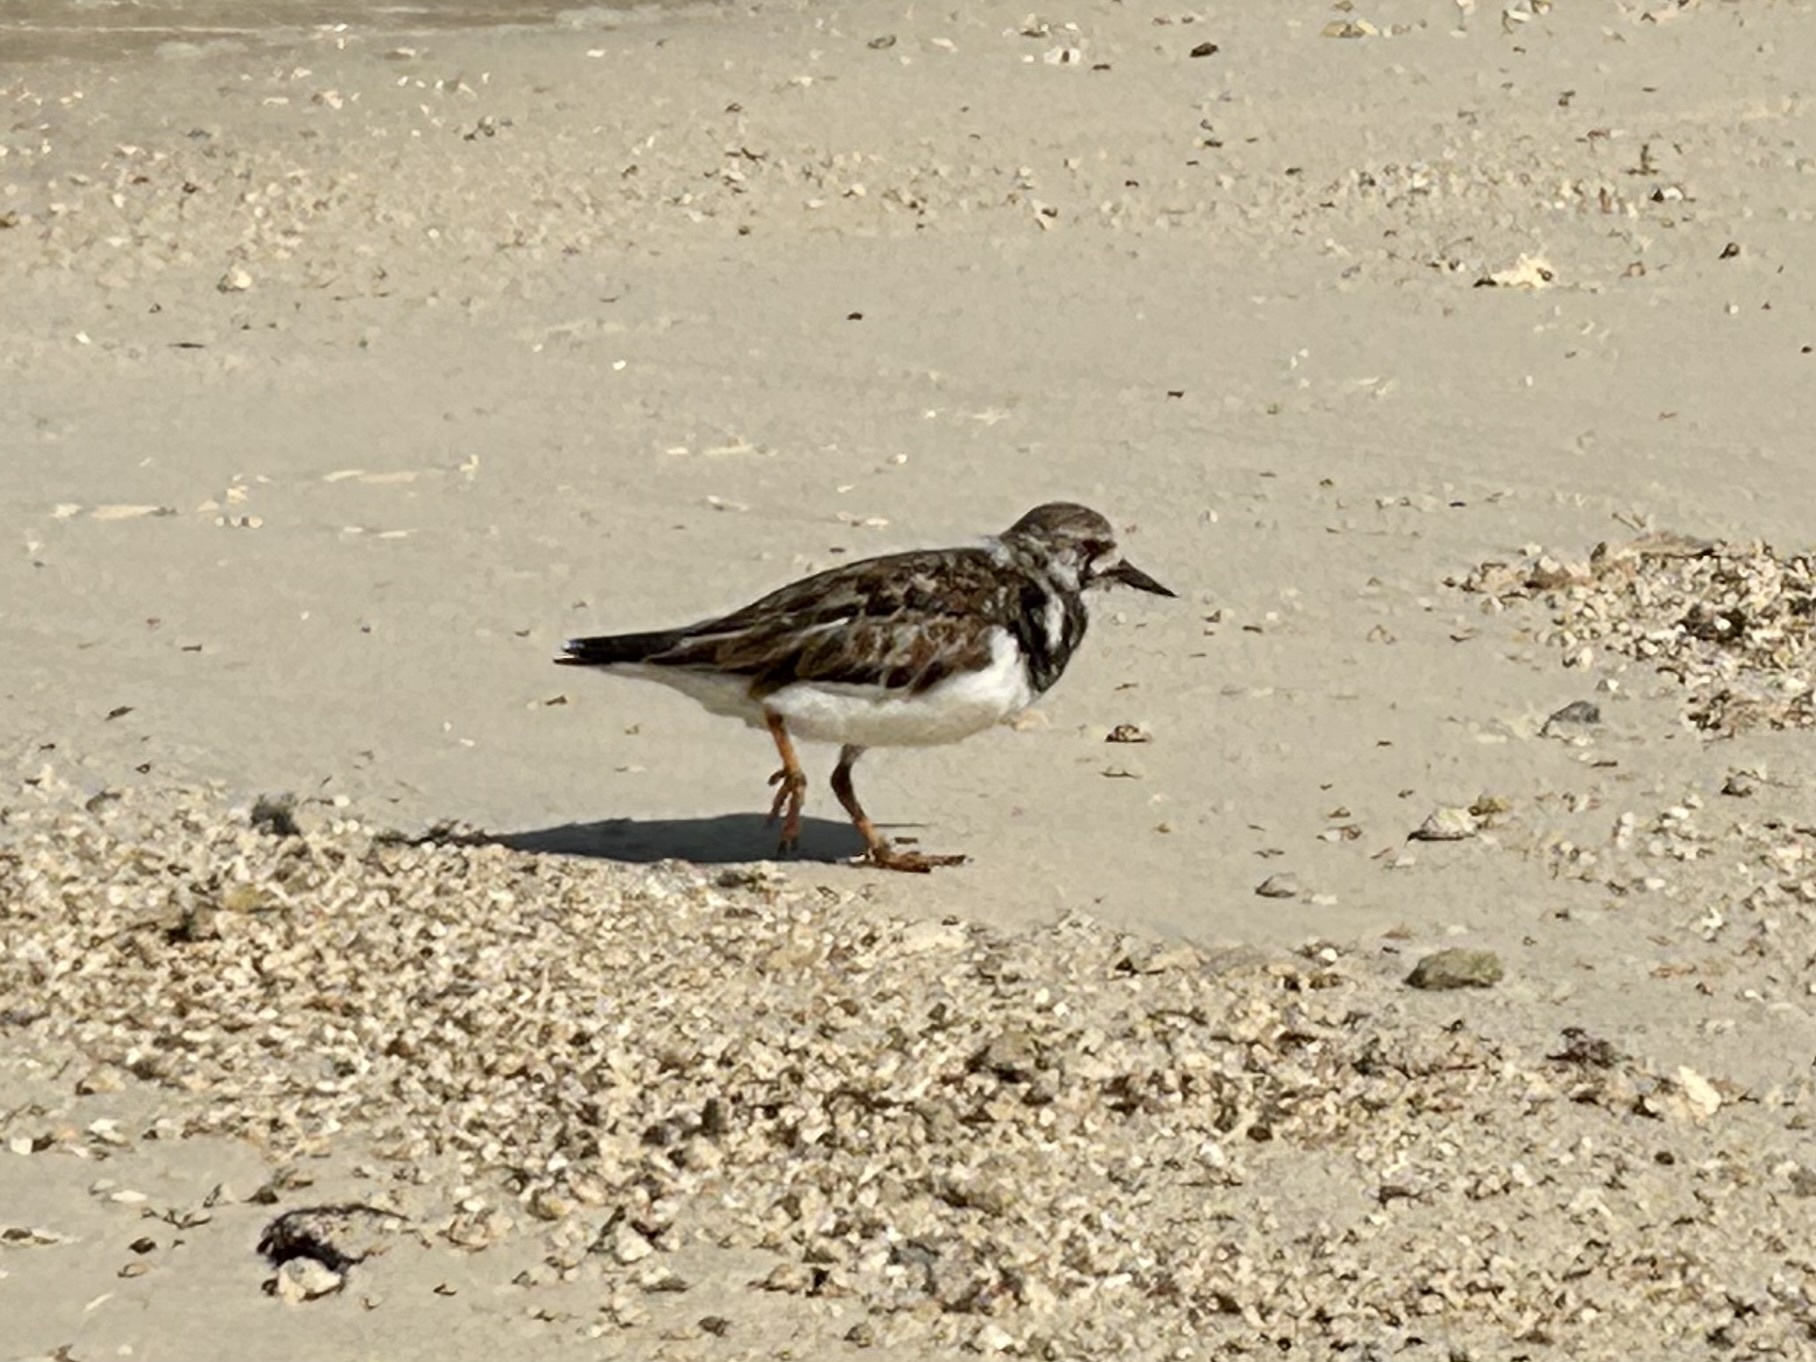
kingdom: Animalia
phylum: Chordata
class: Aves
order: Charadriiformes
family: Scolopacidae
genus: Arenaria
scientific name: Arenaria interpres
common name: Ruddy turnstone
